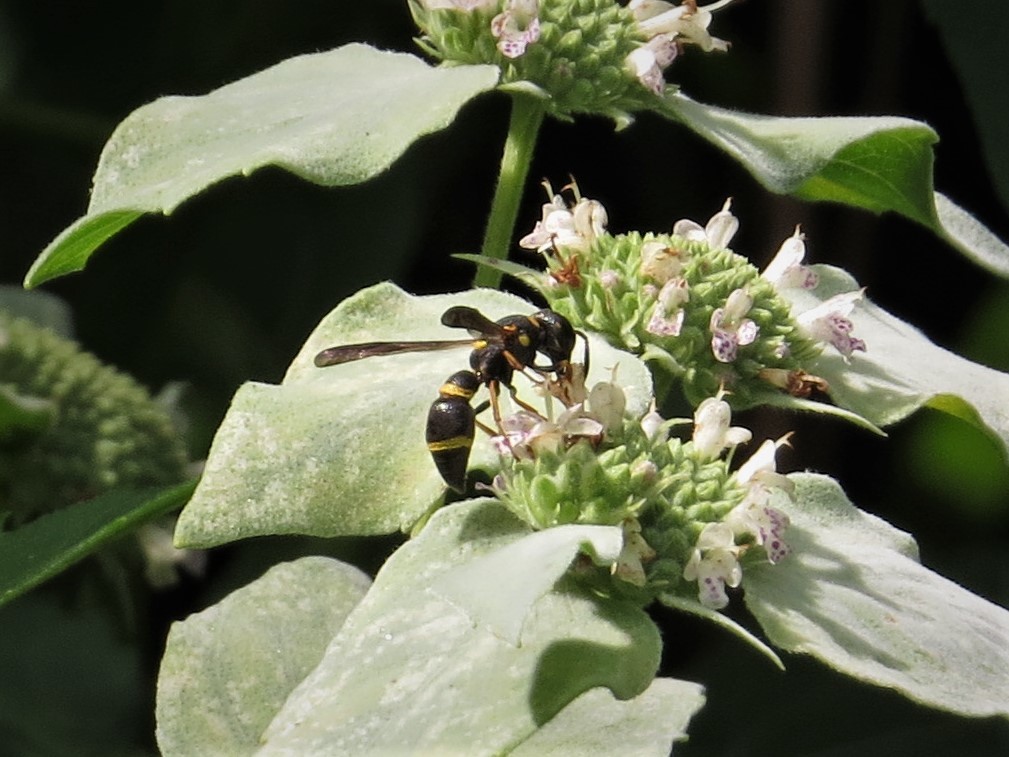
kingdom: Animalia
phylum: Arthropoda
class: Insecta
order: Hymenoptera
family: Eumenidae
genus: Parancistrocerus
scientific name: Parancistrocerus perennis
